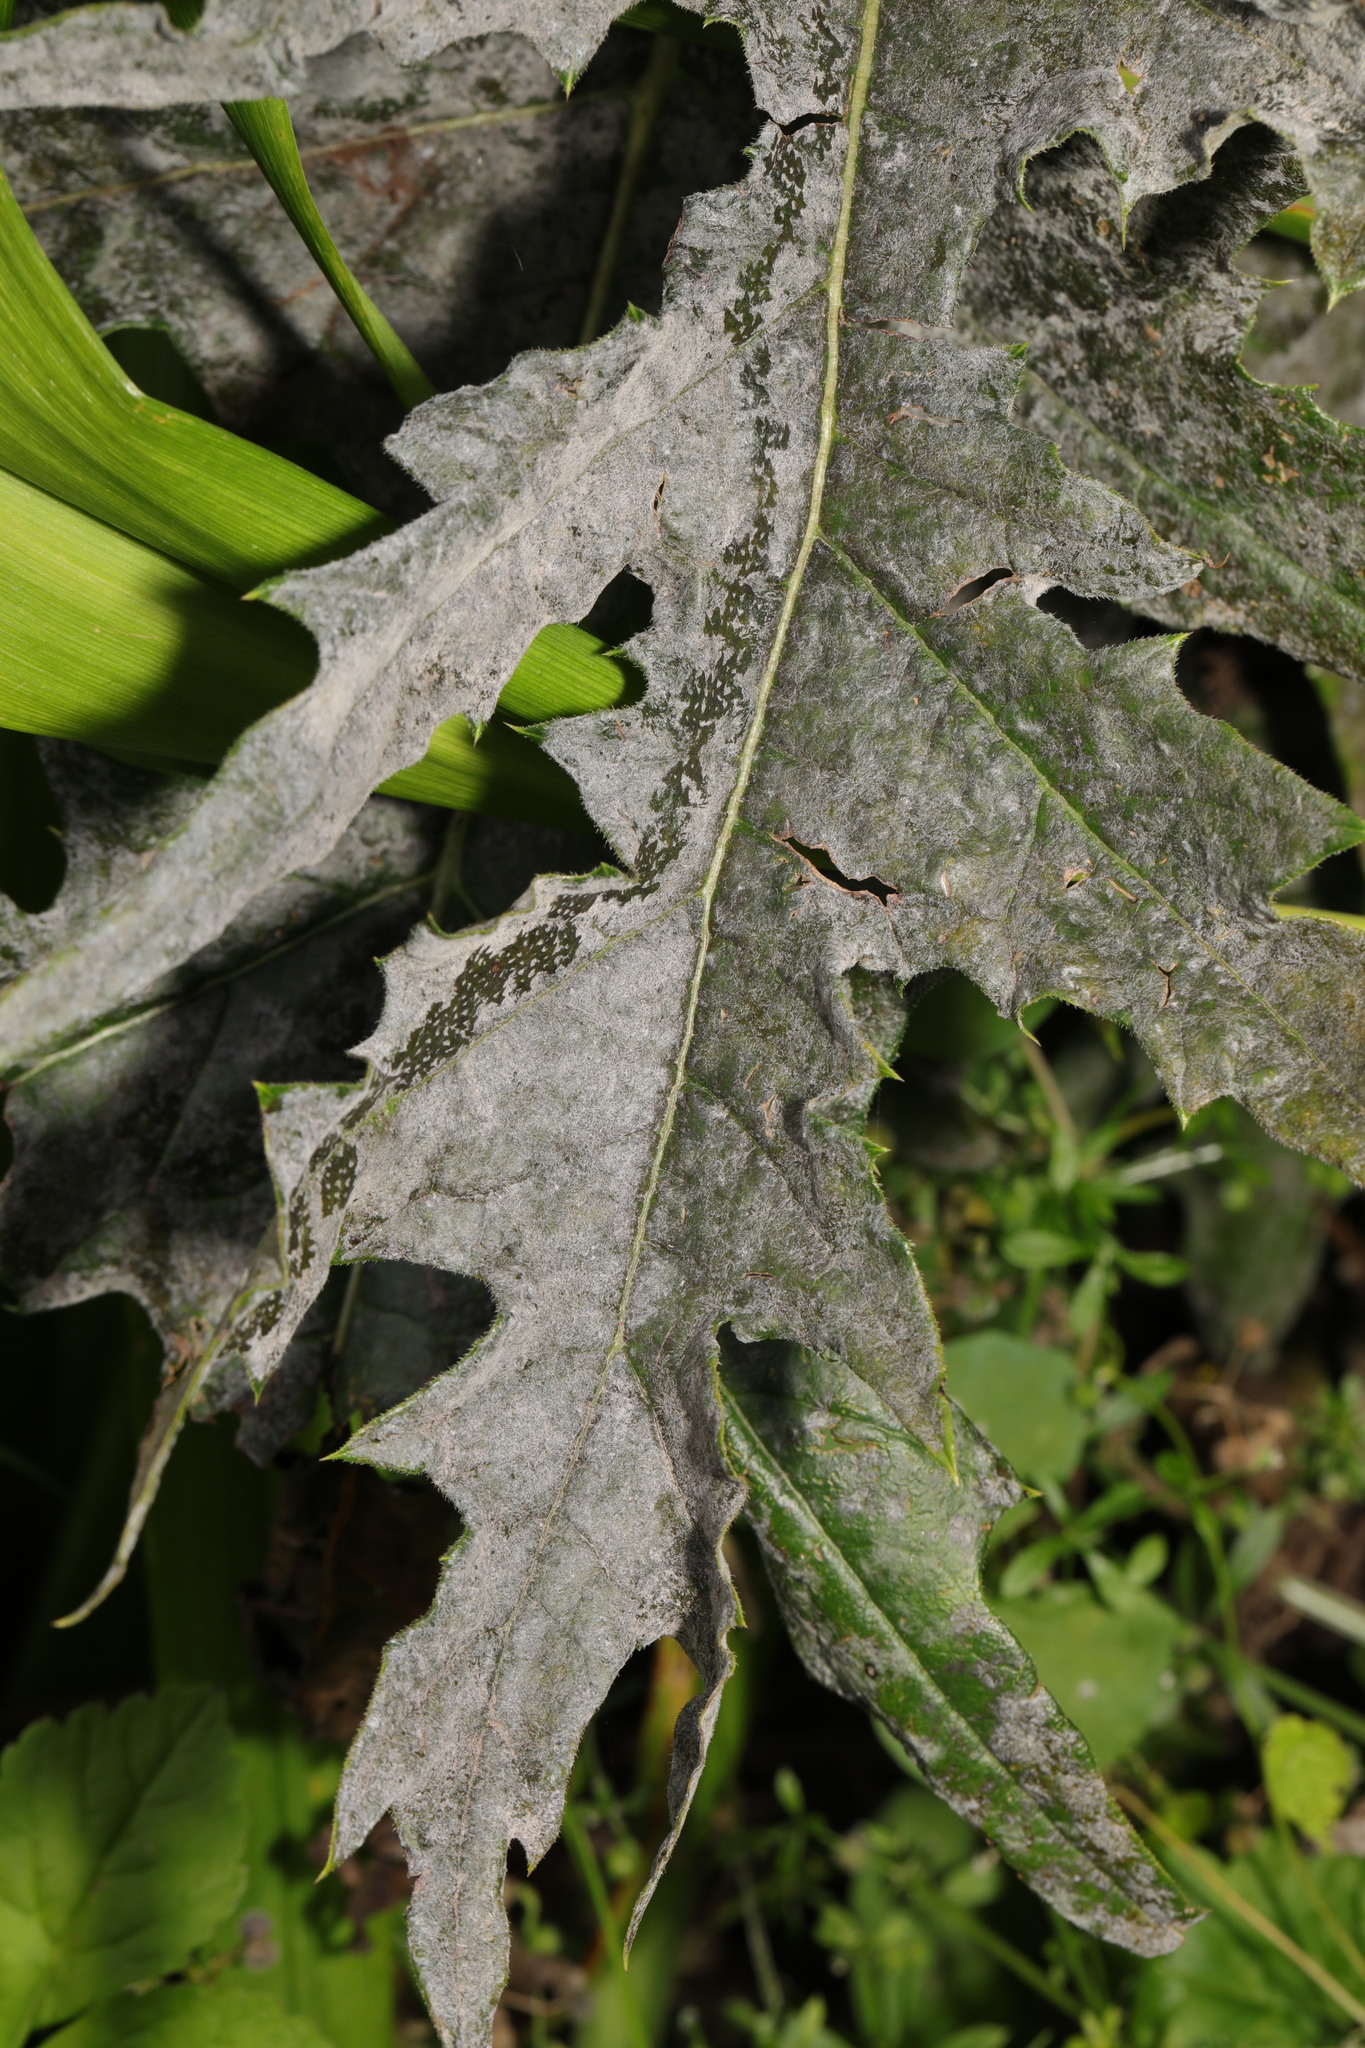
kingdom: Fungi
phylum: Ascomycota
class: Leotiomycetes
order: Helotiales
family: Erysiphaceae
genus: Golovinomyces
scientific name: Golovinomyces echinopis
